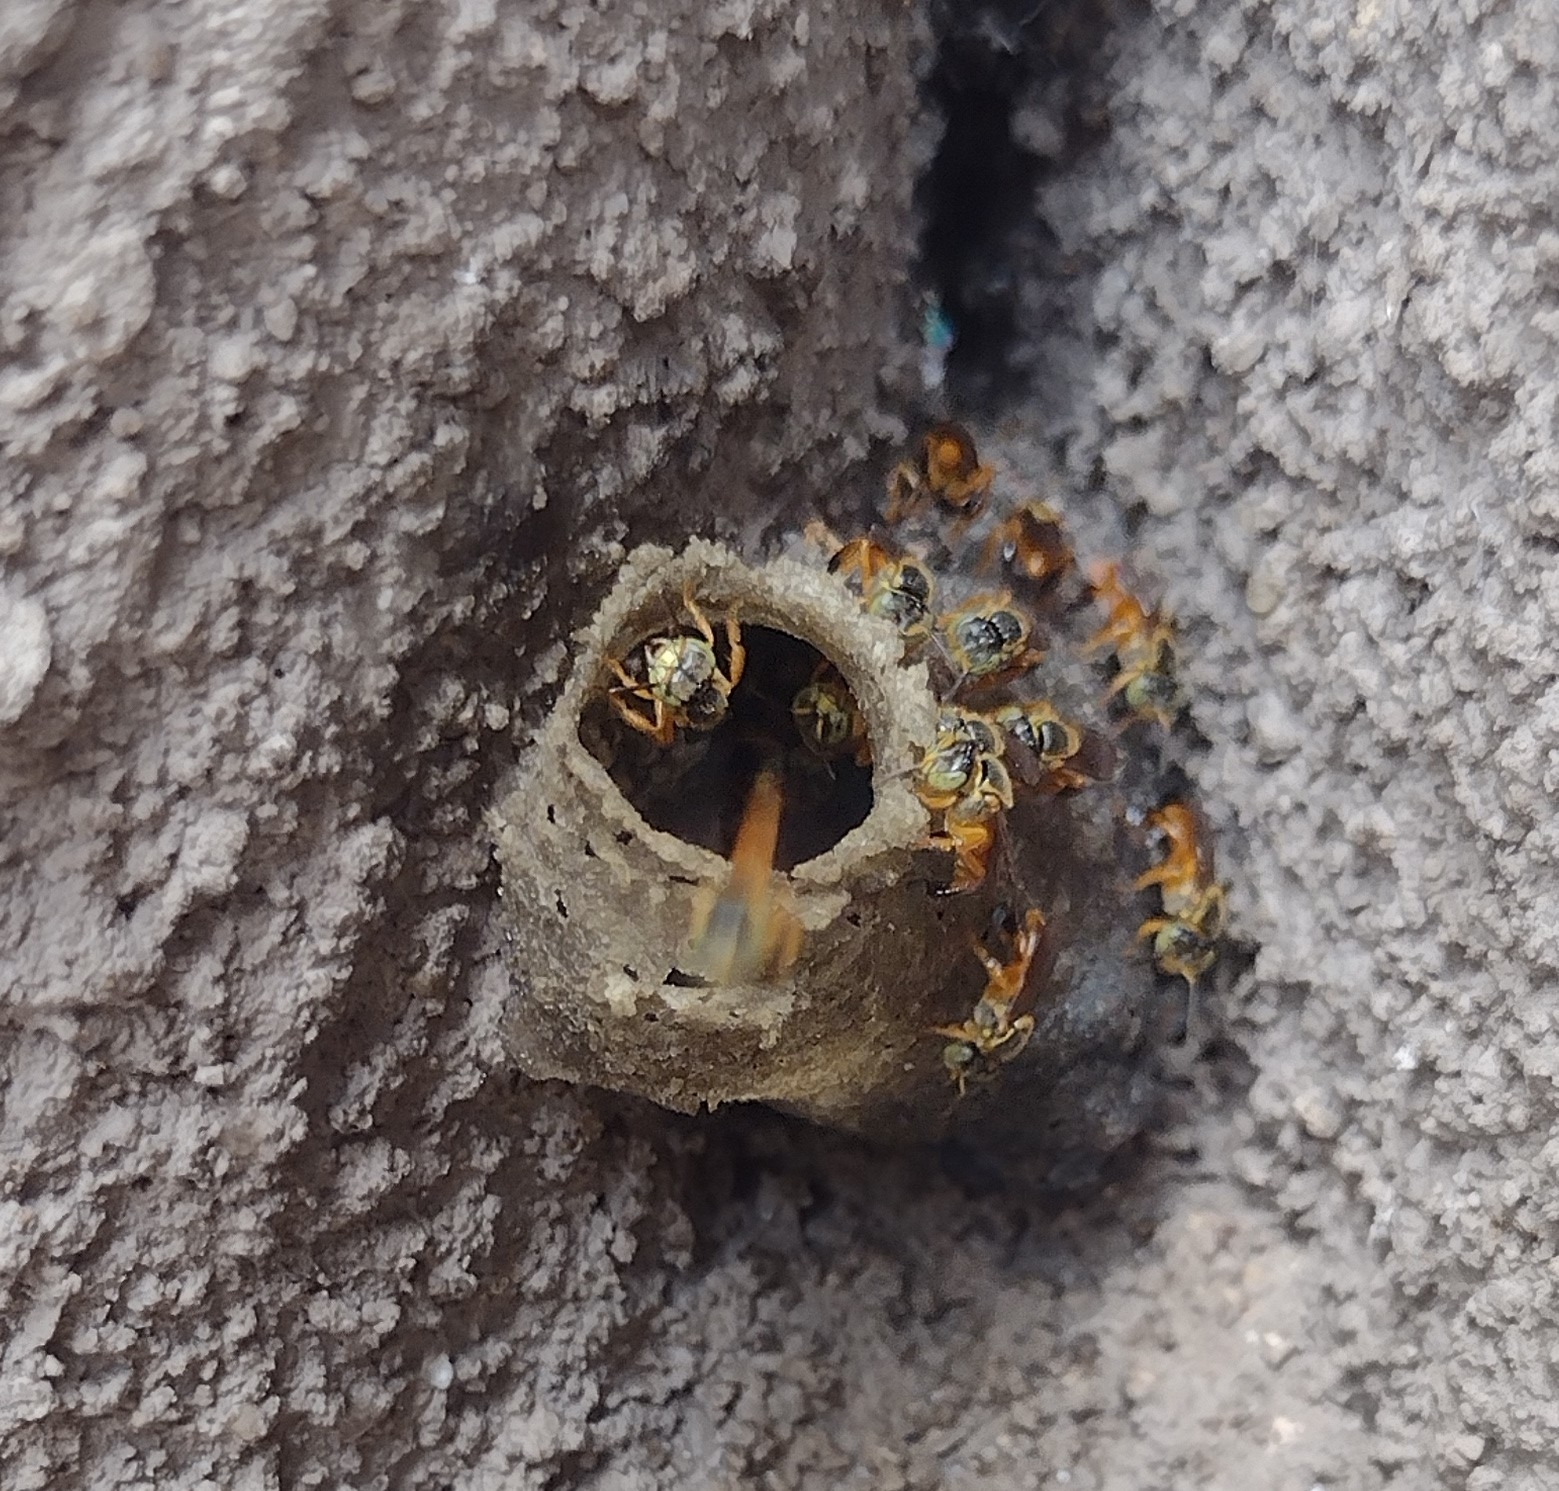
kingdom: Animalia
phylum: Arthropoda
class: Insecta
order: Hymenoptera
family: Apidae
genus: Tetragonisca
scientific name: Tetragonisca fiebrigi
